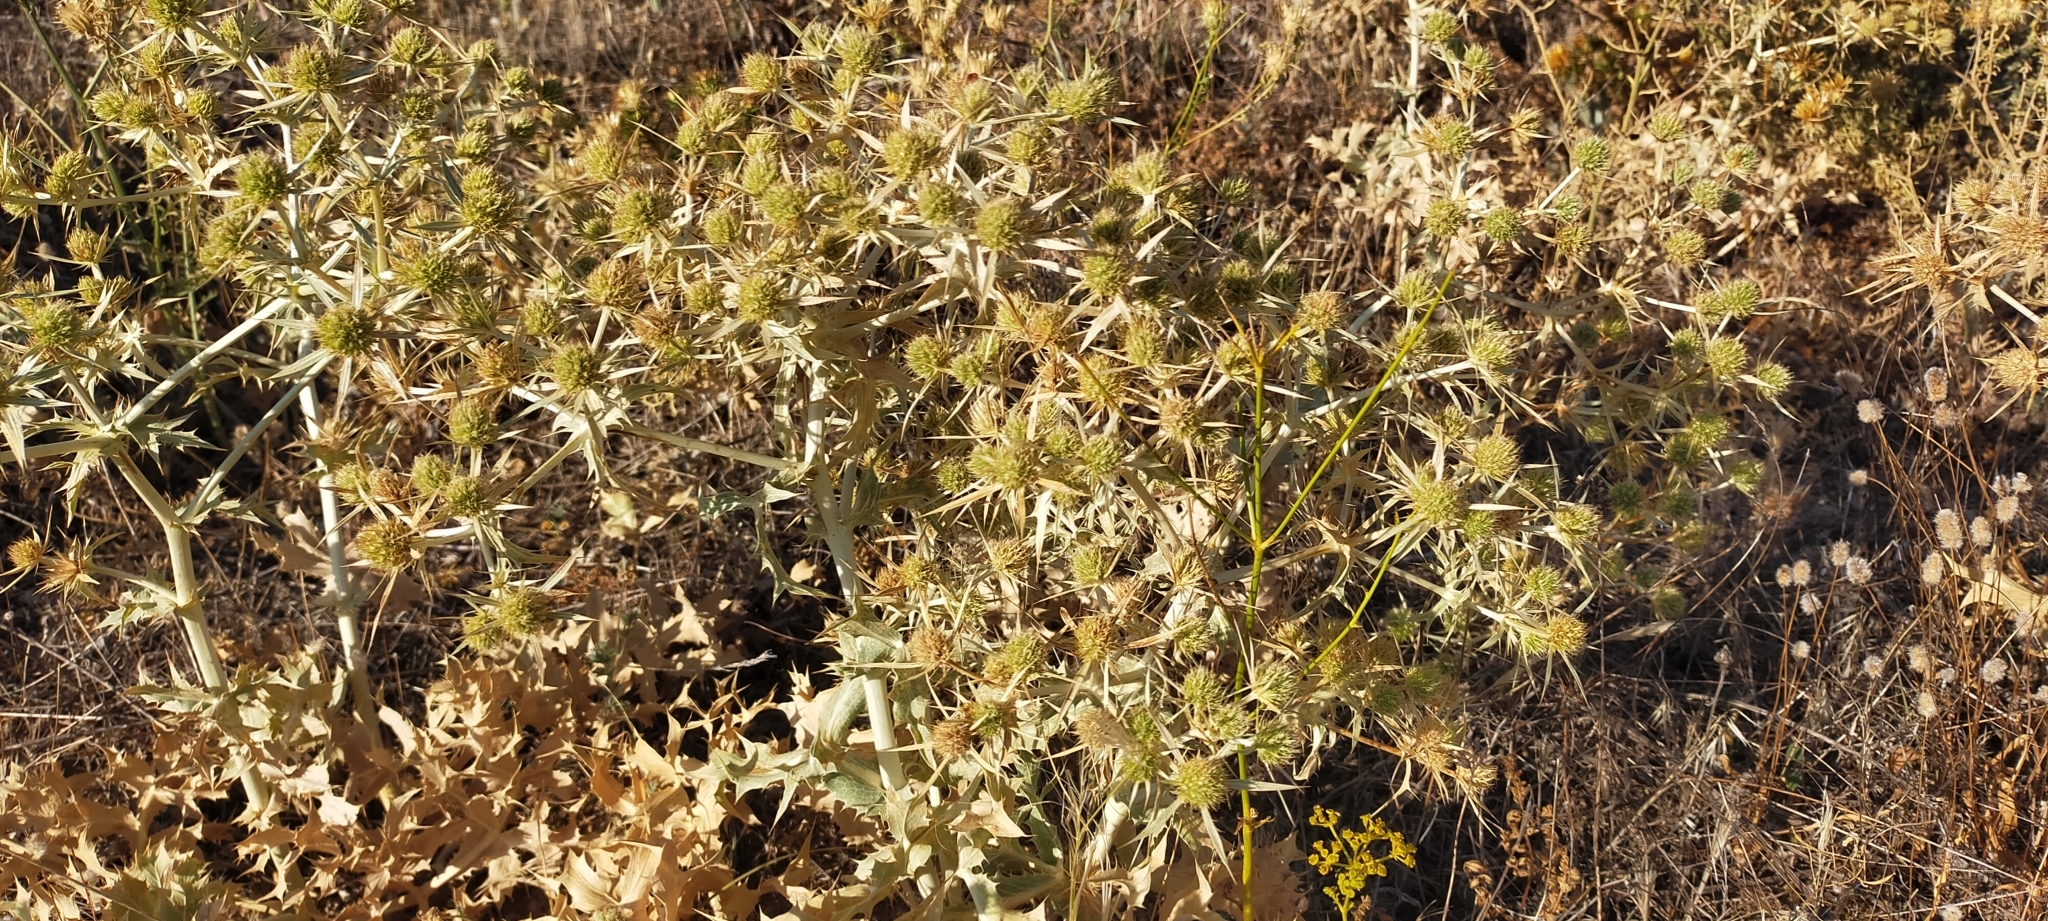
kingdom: Plantae
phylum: Tracheophyta
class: Magnoliopsida
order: Apiales
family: Apiaceae
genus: Eryngium
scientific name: Eryngium campestre
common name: Field eryngo
